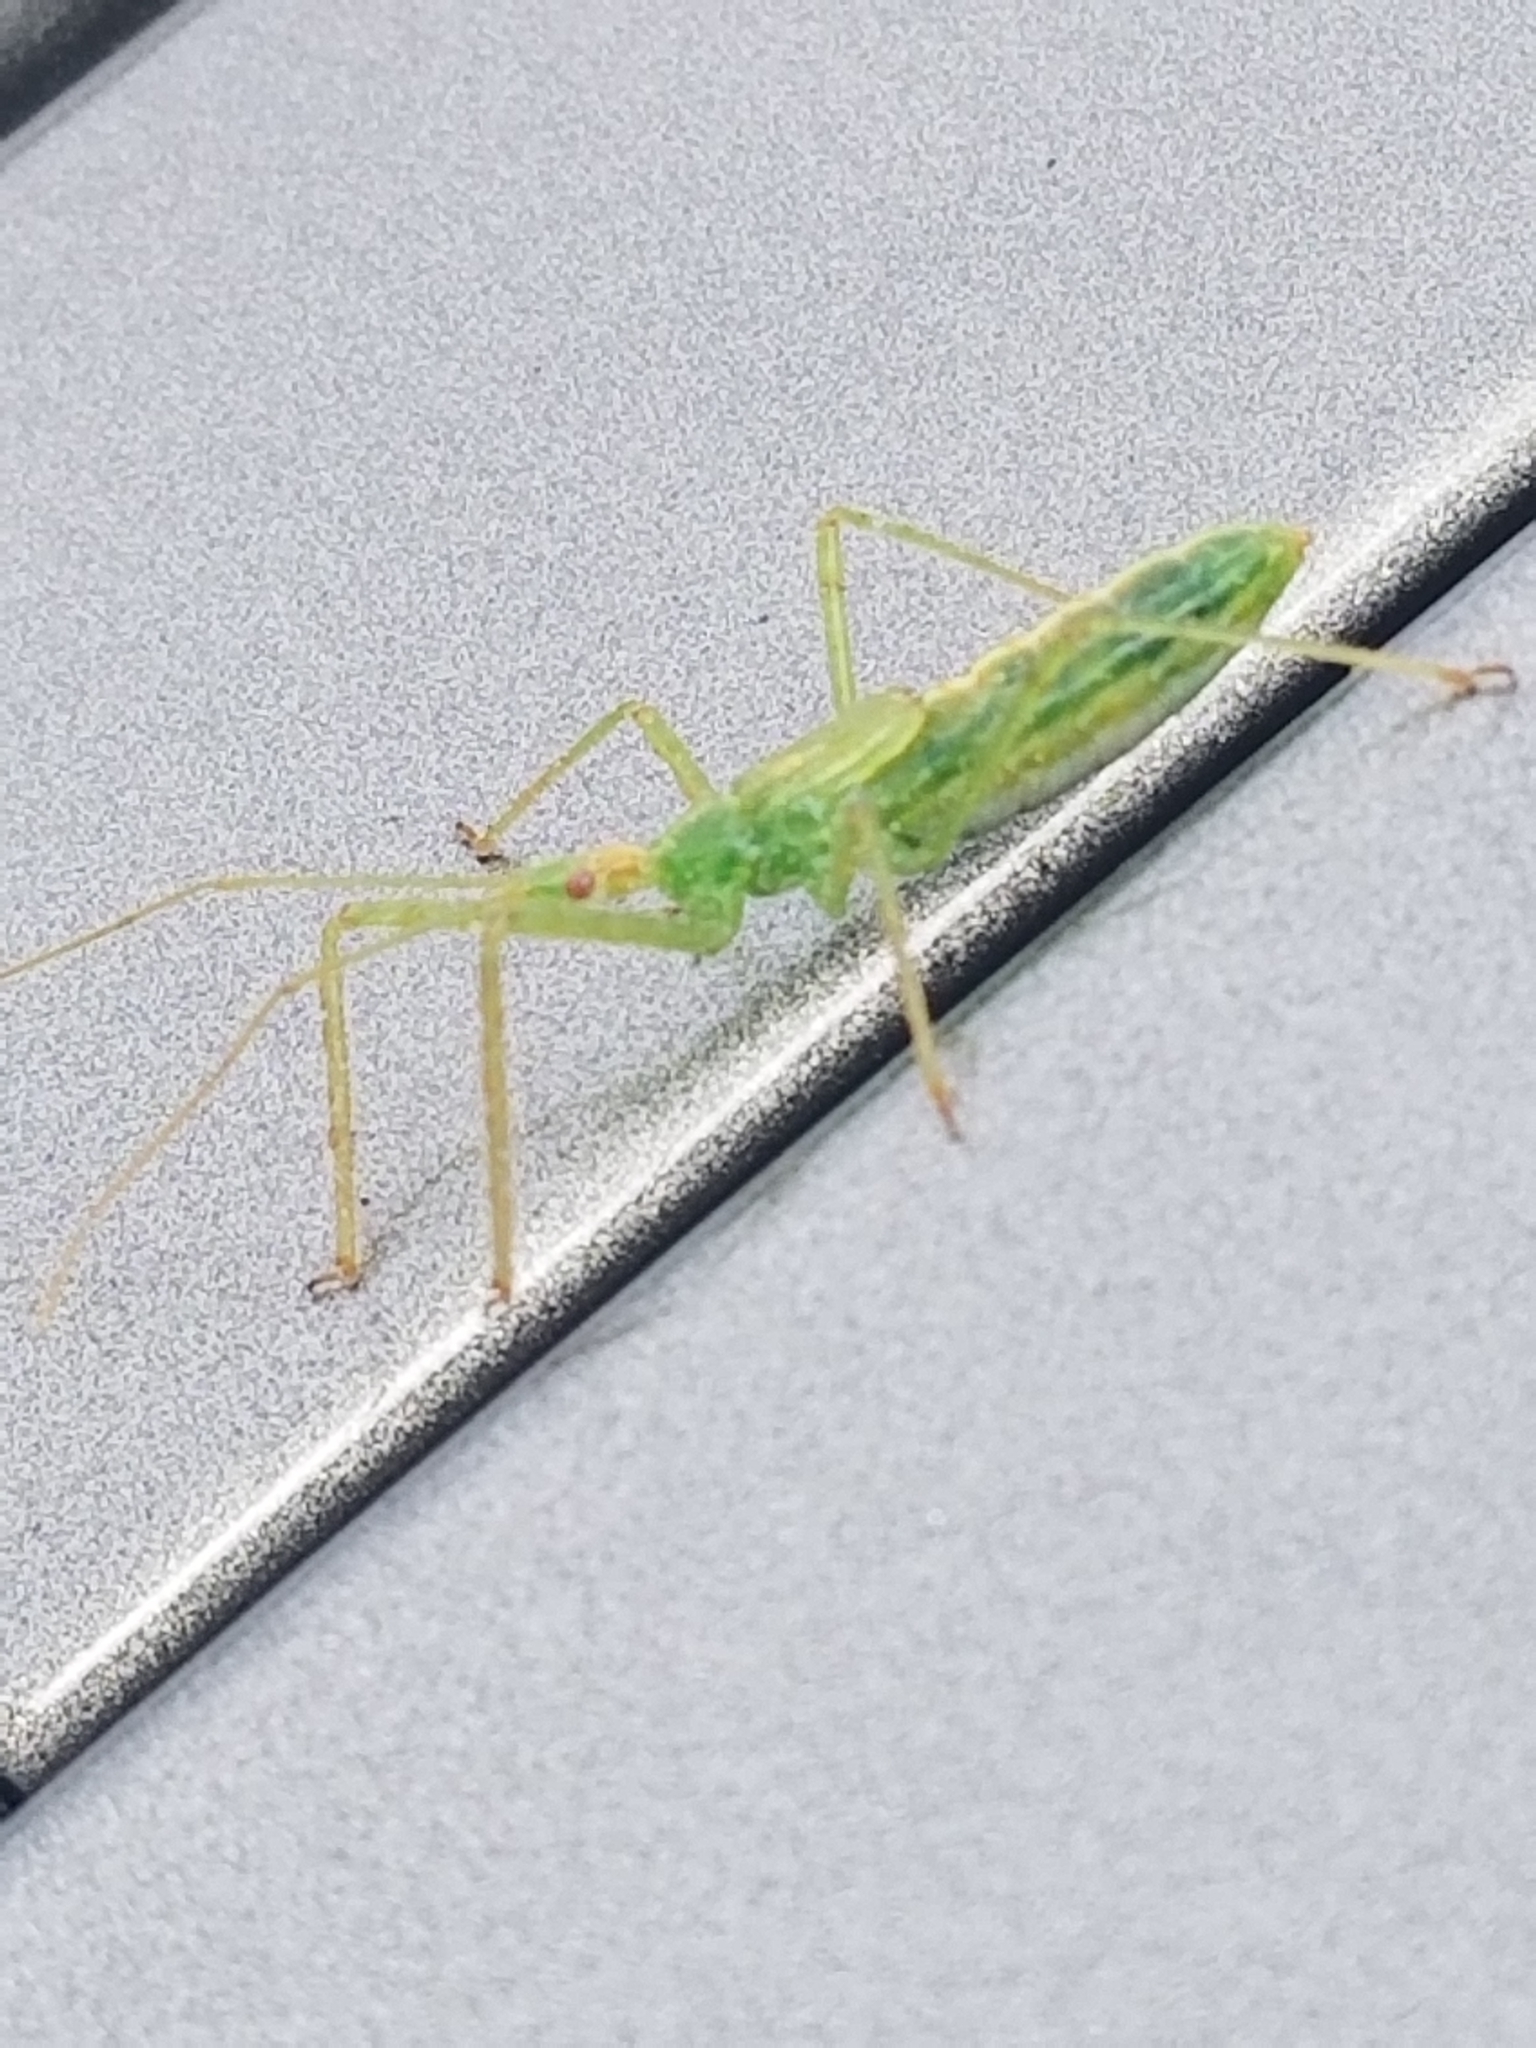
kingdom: Animalia
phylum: Arthropoda
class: Insecta
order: Hemiptera
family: Reduviidae
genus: Zelus
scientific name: Zelus luridus
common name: Pale green assassin bug
